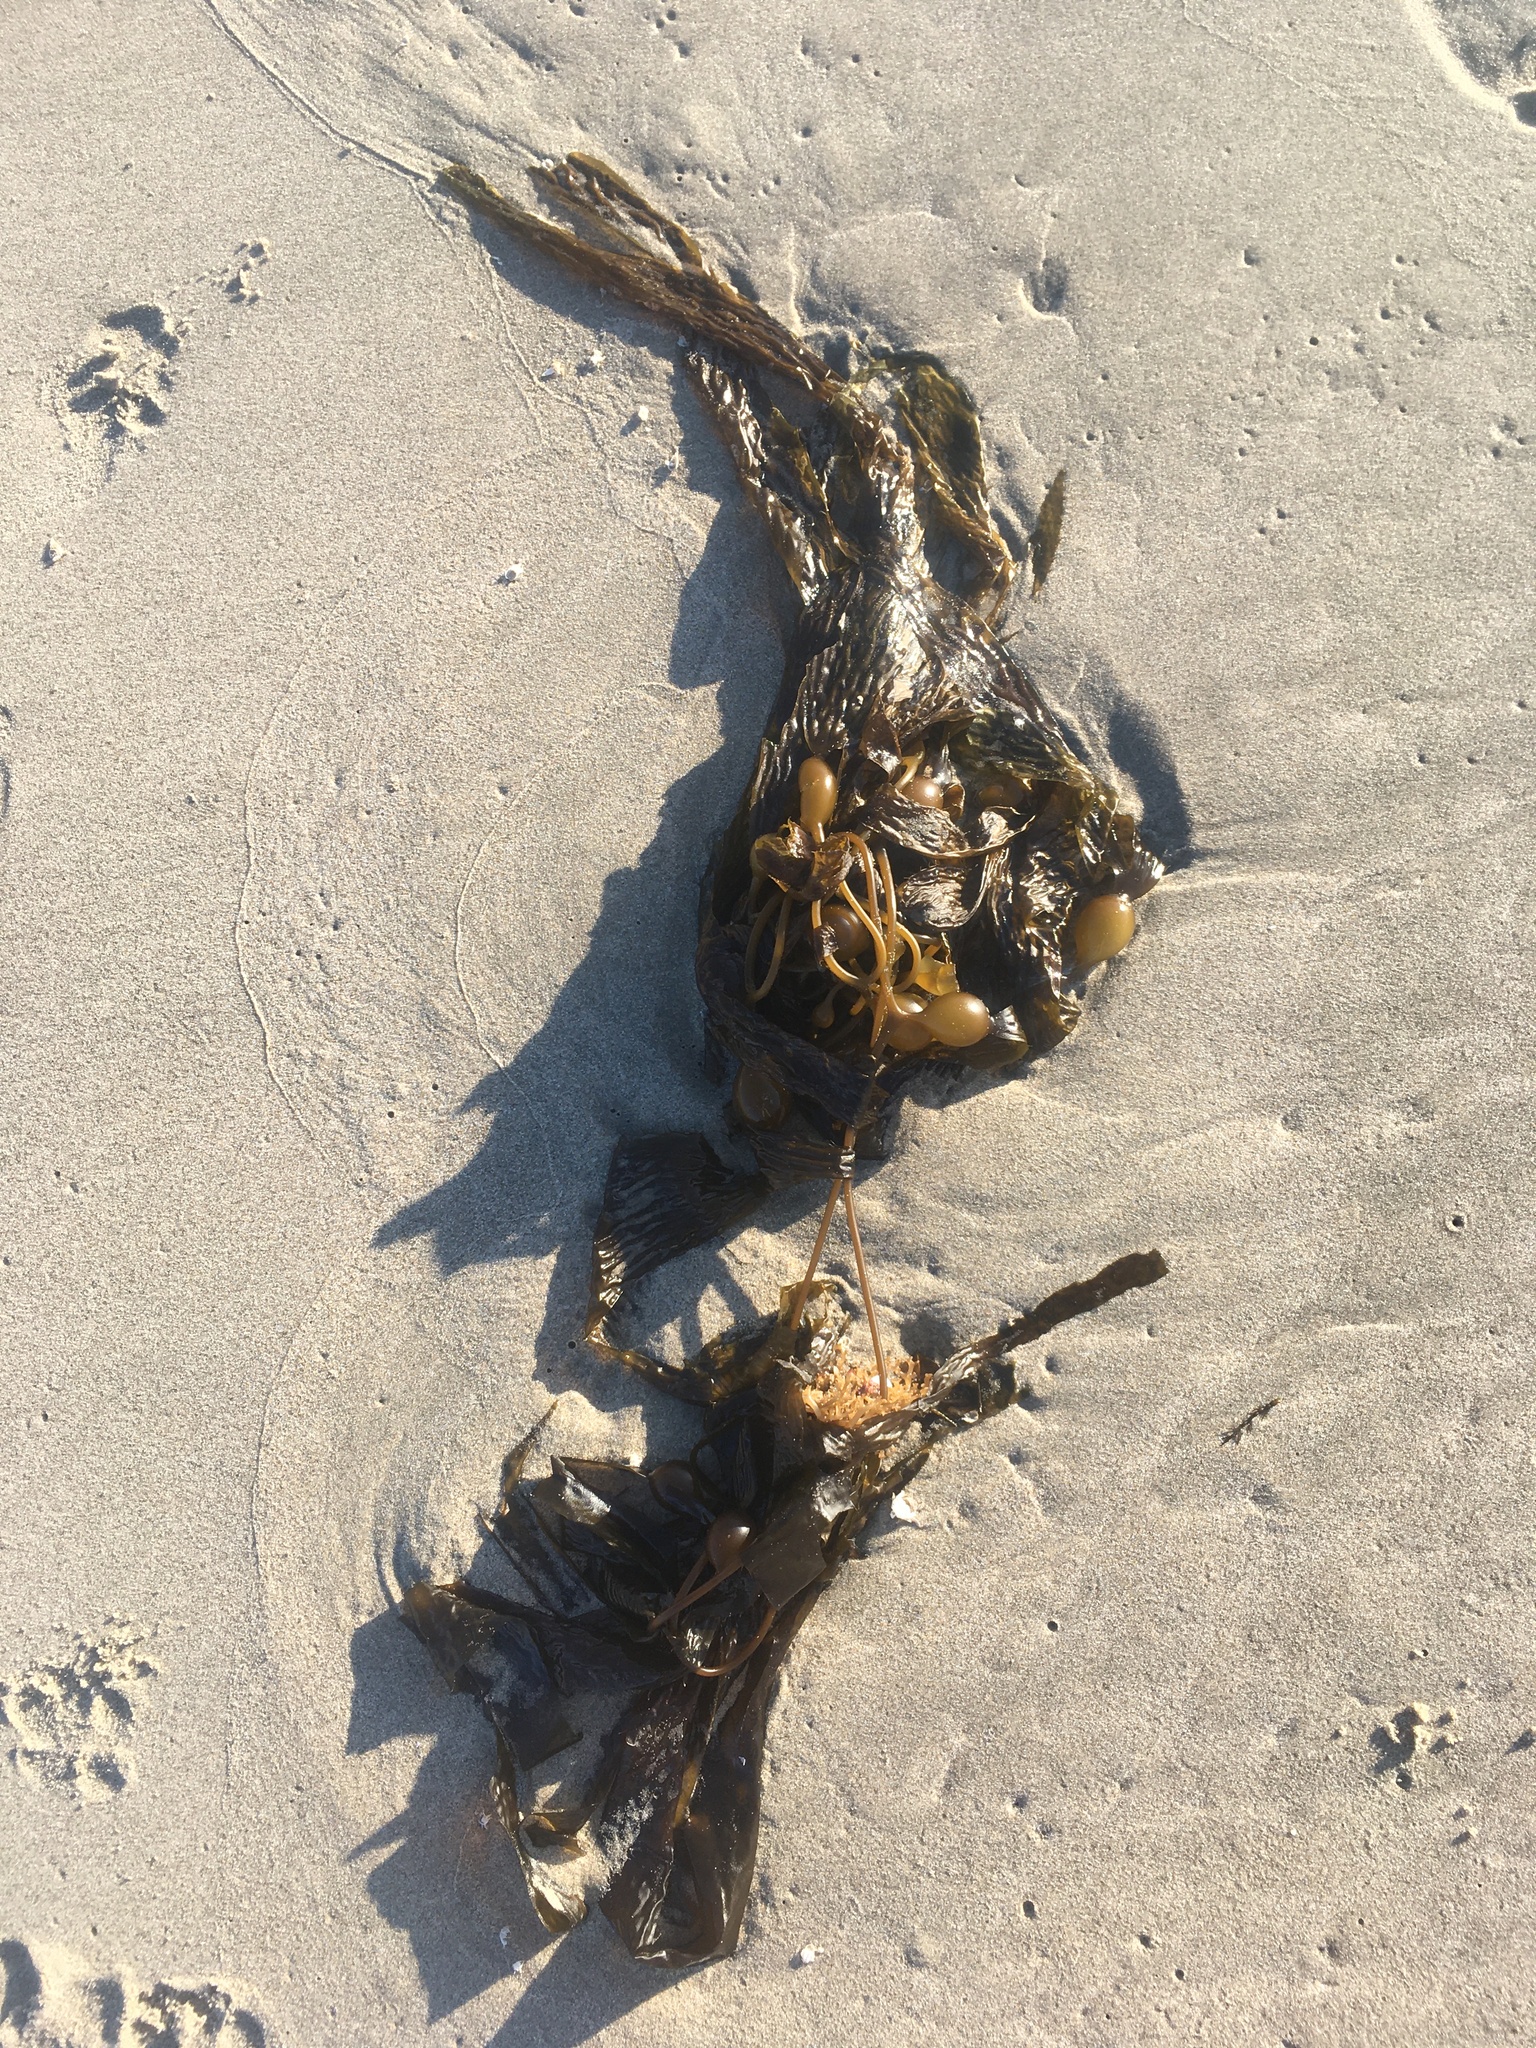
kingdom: Chromista
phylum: Ochrophyta
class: Phaeophyceae
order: Laminariales
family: Laminariaceae
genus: Macrocystis
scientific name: Macrocystis pyrifera
